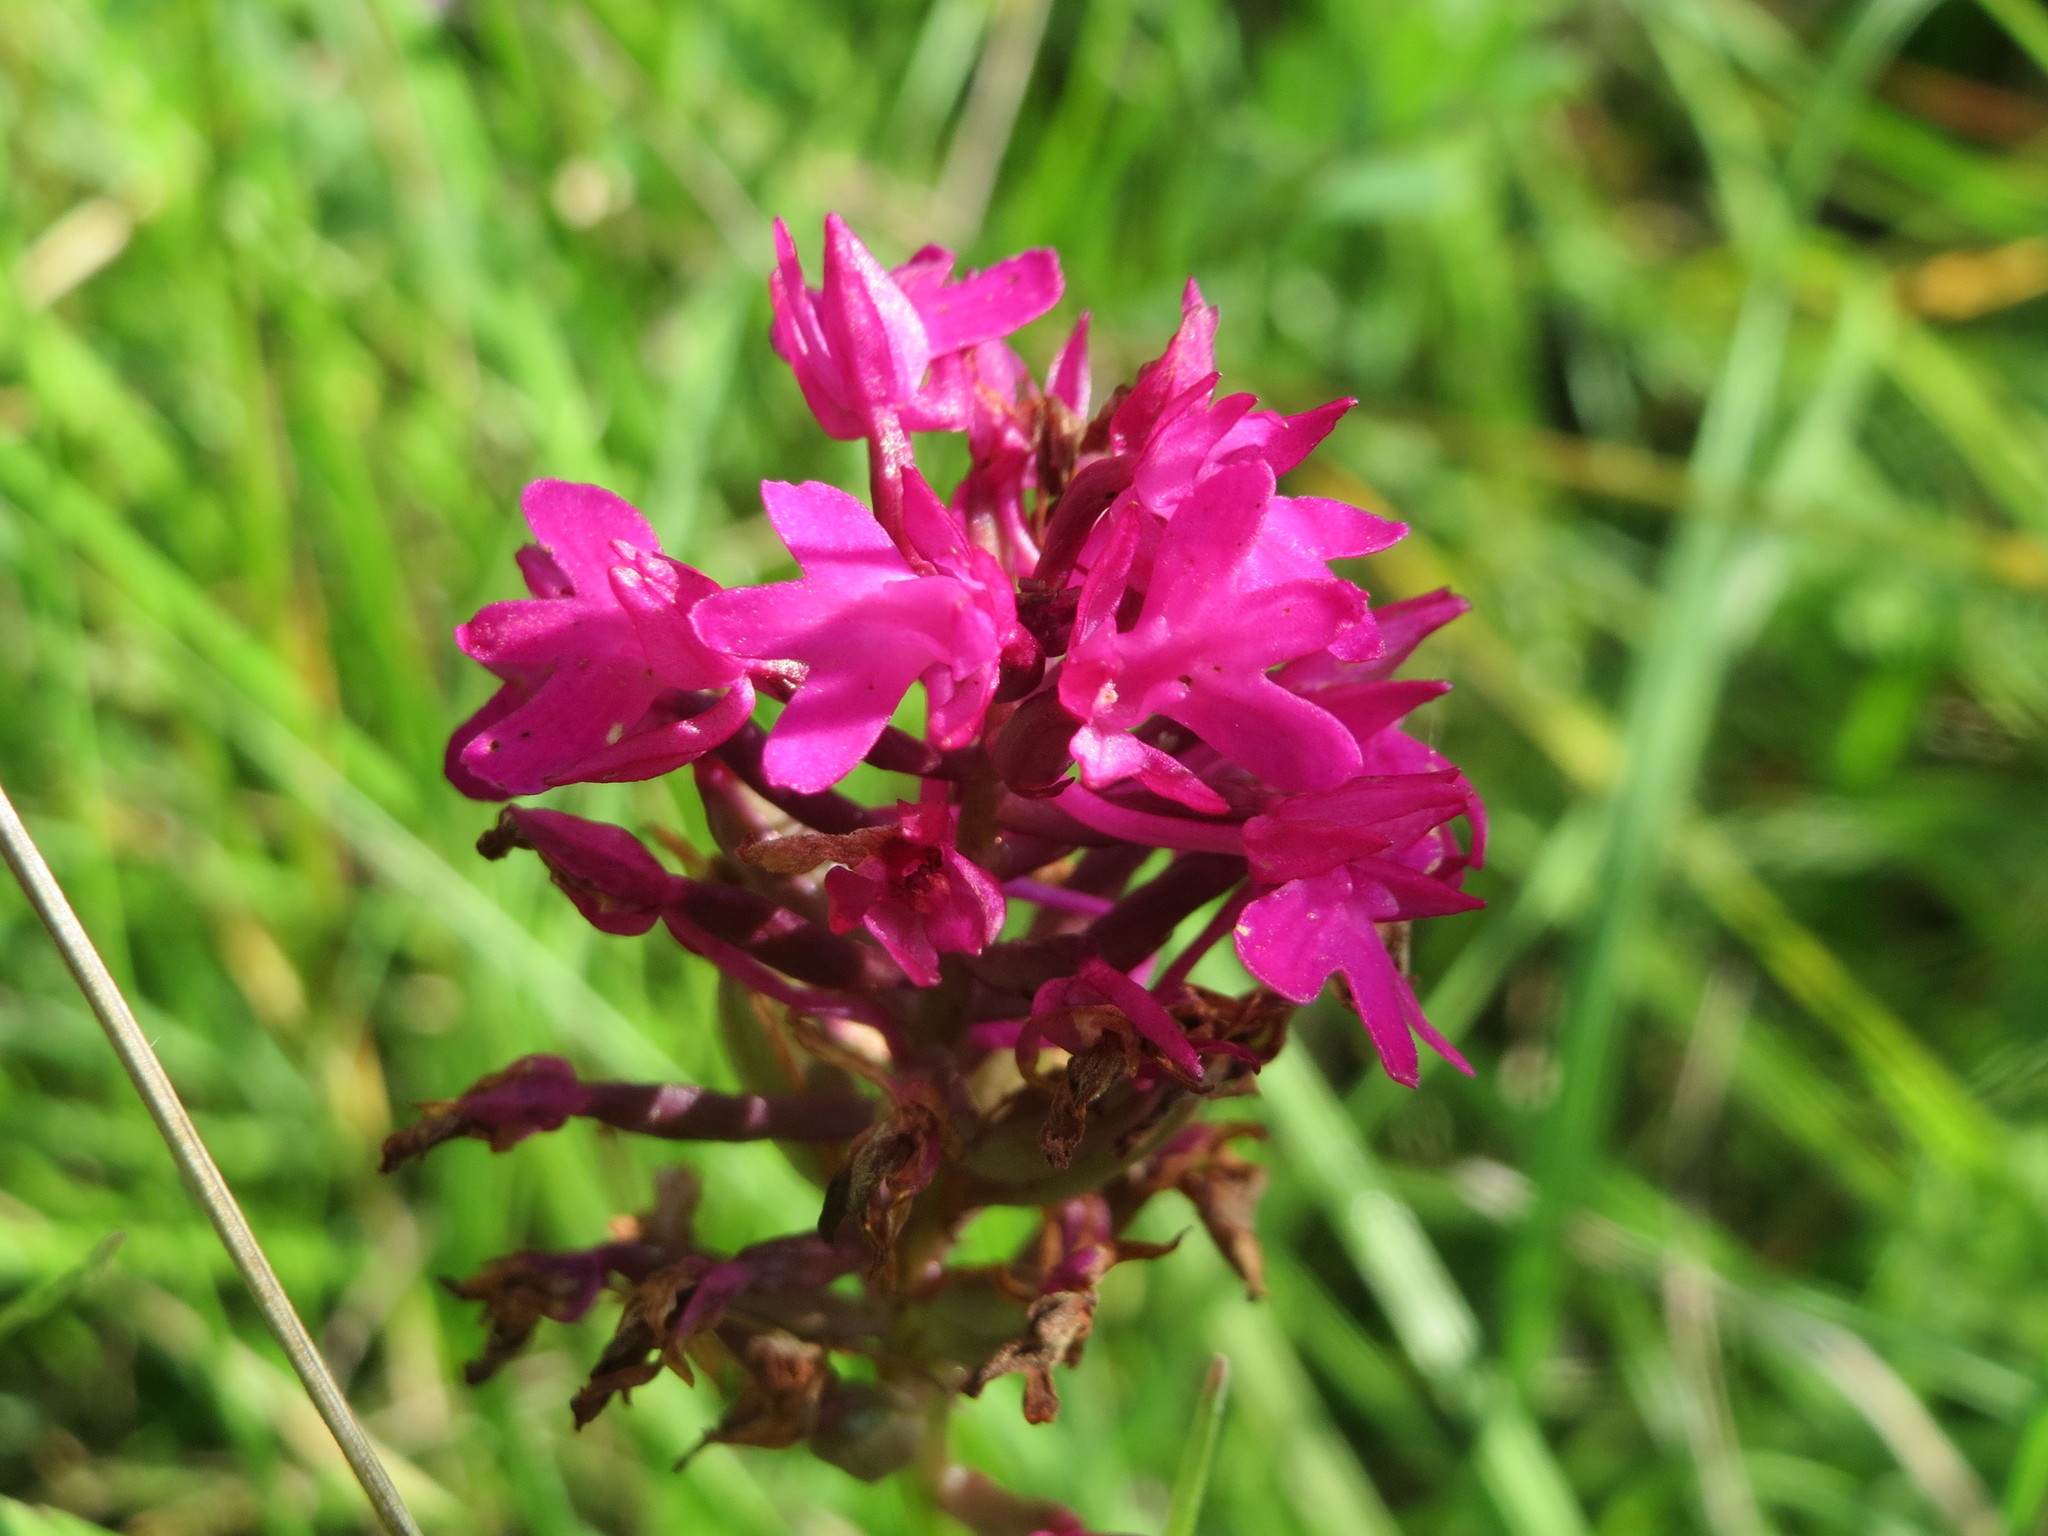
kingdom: Plantae
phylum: Tracheophyta
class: Liliopsida
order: Asparagales
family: Orchidaceae
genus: Anacamptis
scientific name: Anacamptis pyramidalis
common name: Pyramidal orchid
